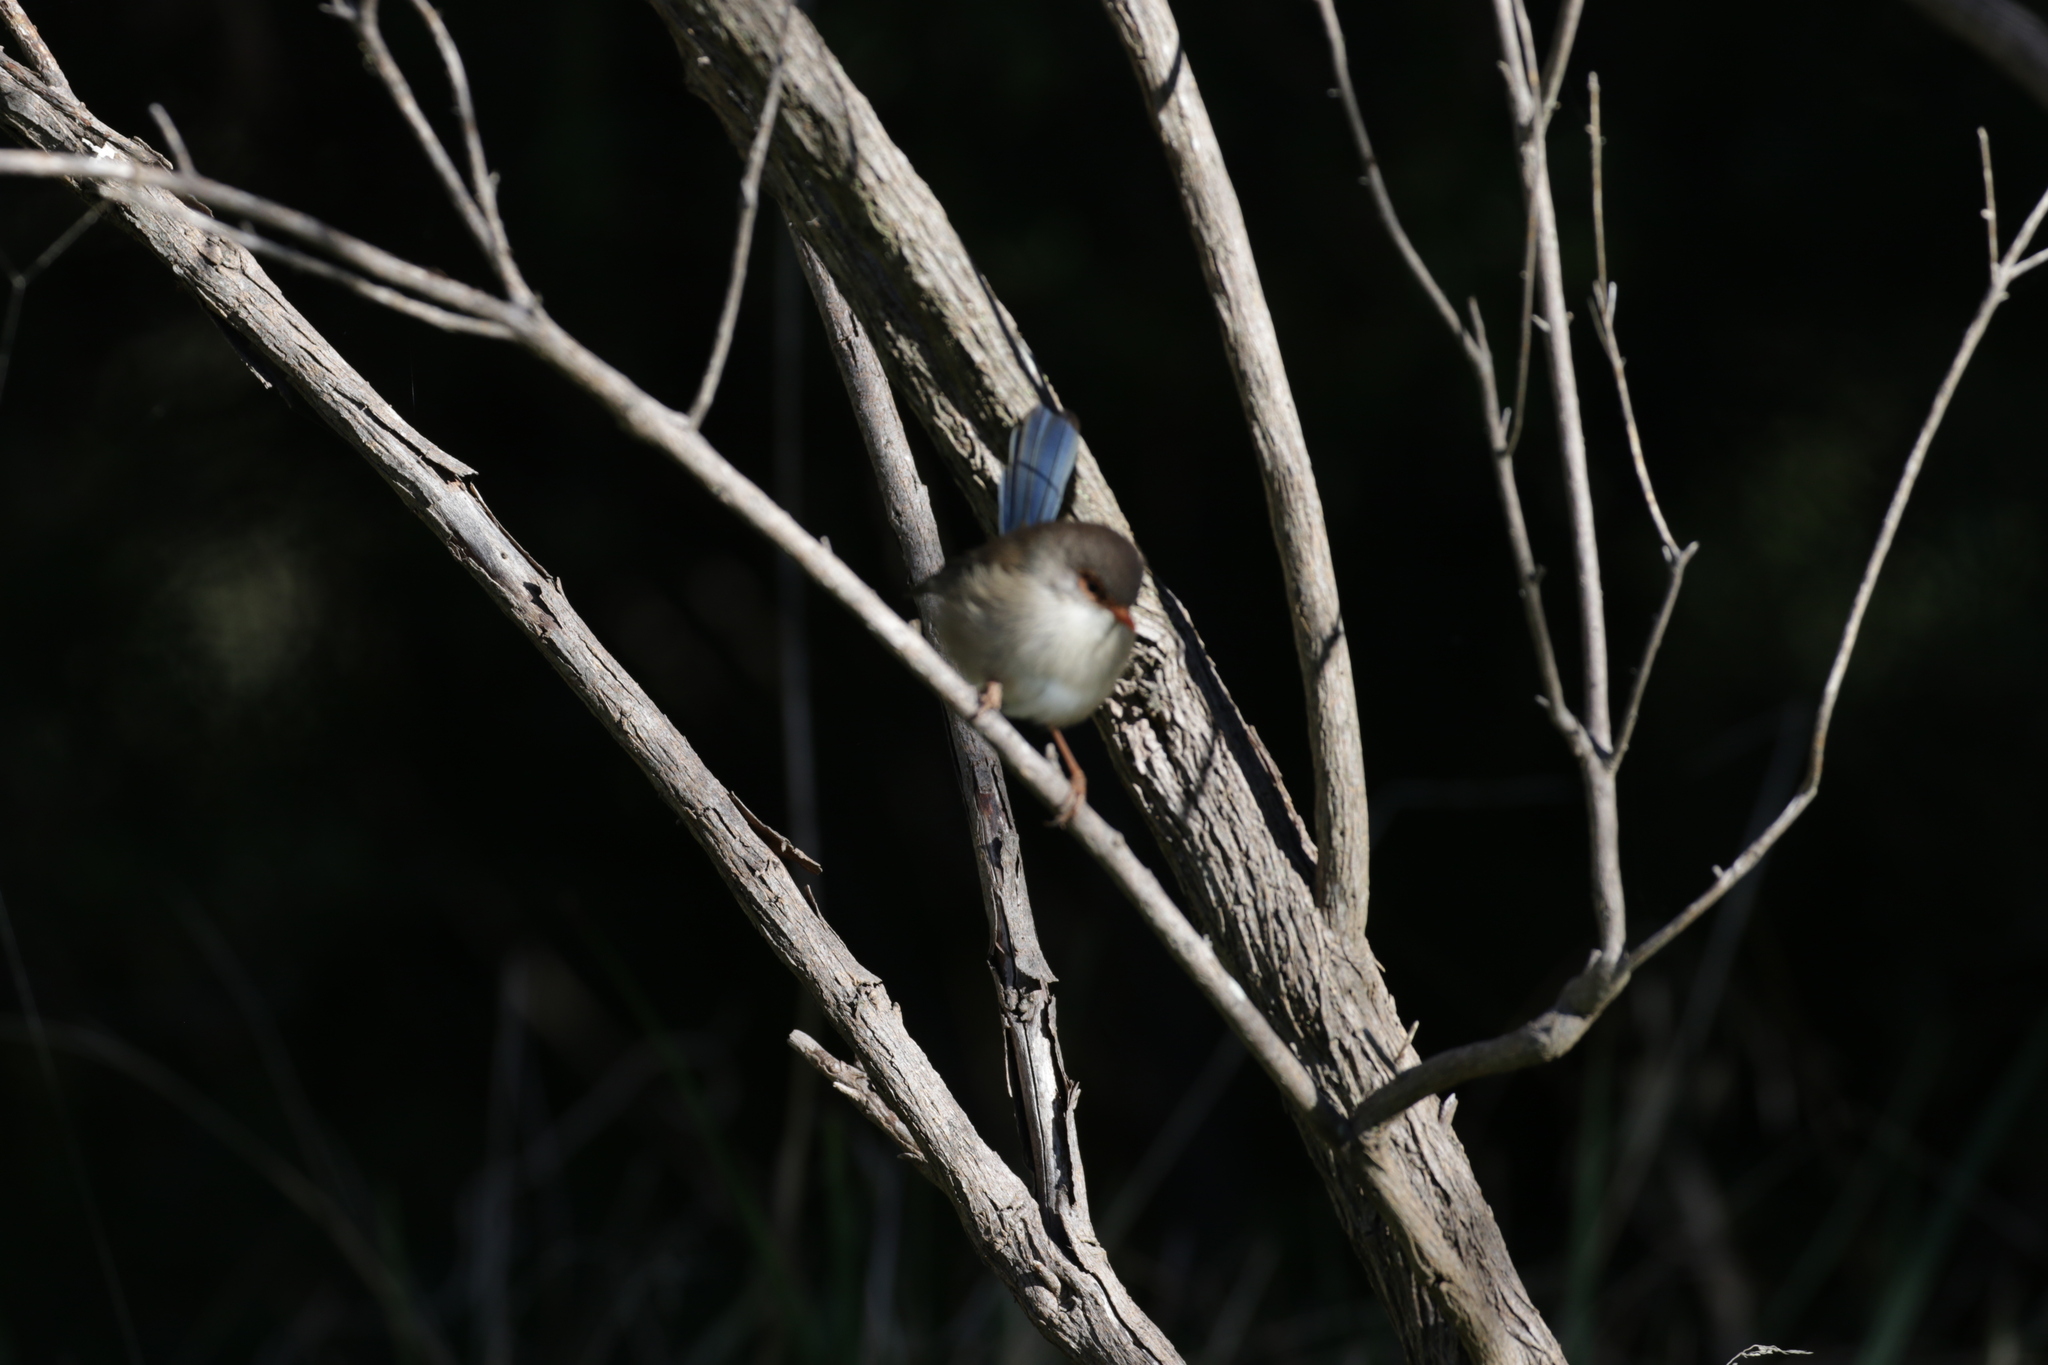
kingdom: Animalia
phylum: Chordata
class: Aves
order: Passeriformes
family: Maluridae
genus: Malurus
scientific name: Malurus cyaneus
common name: Superb fairywren
